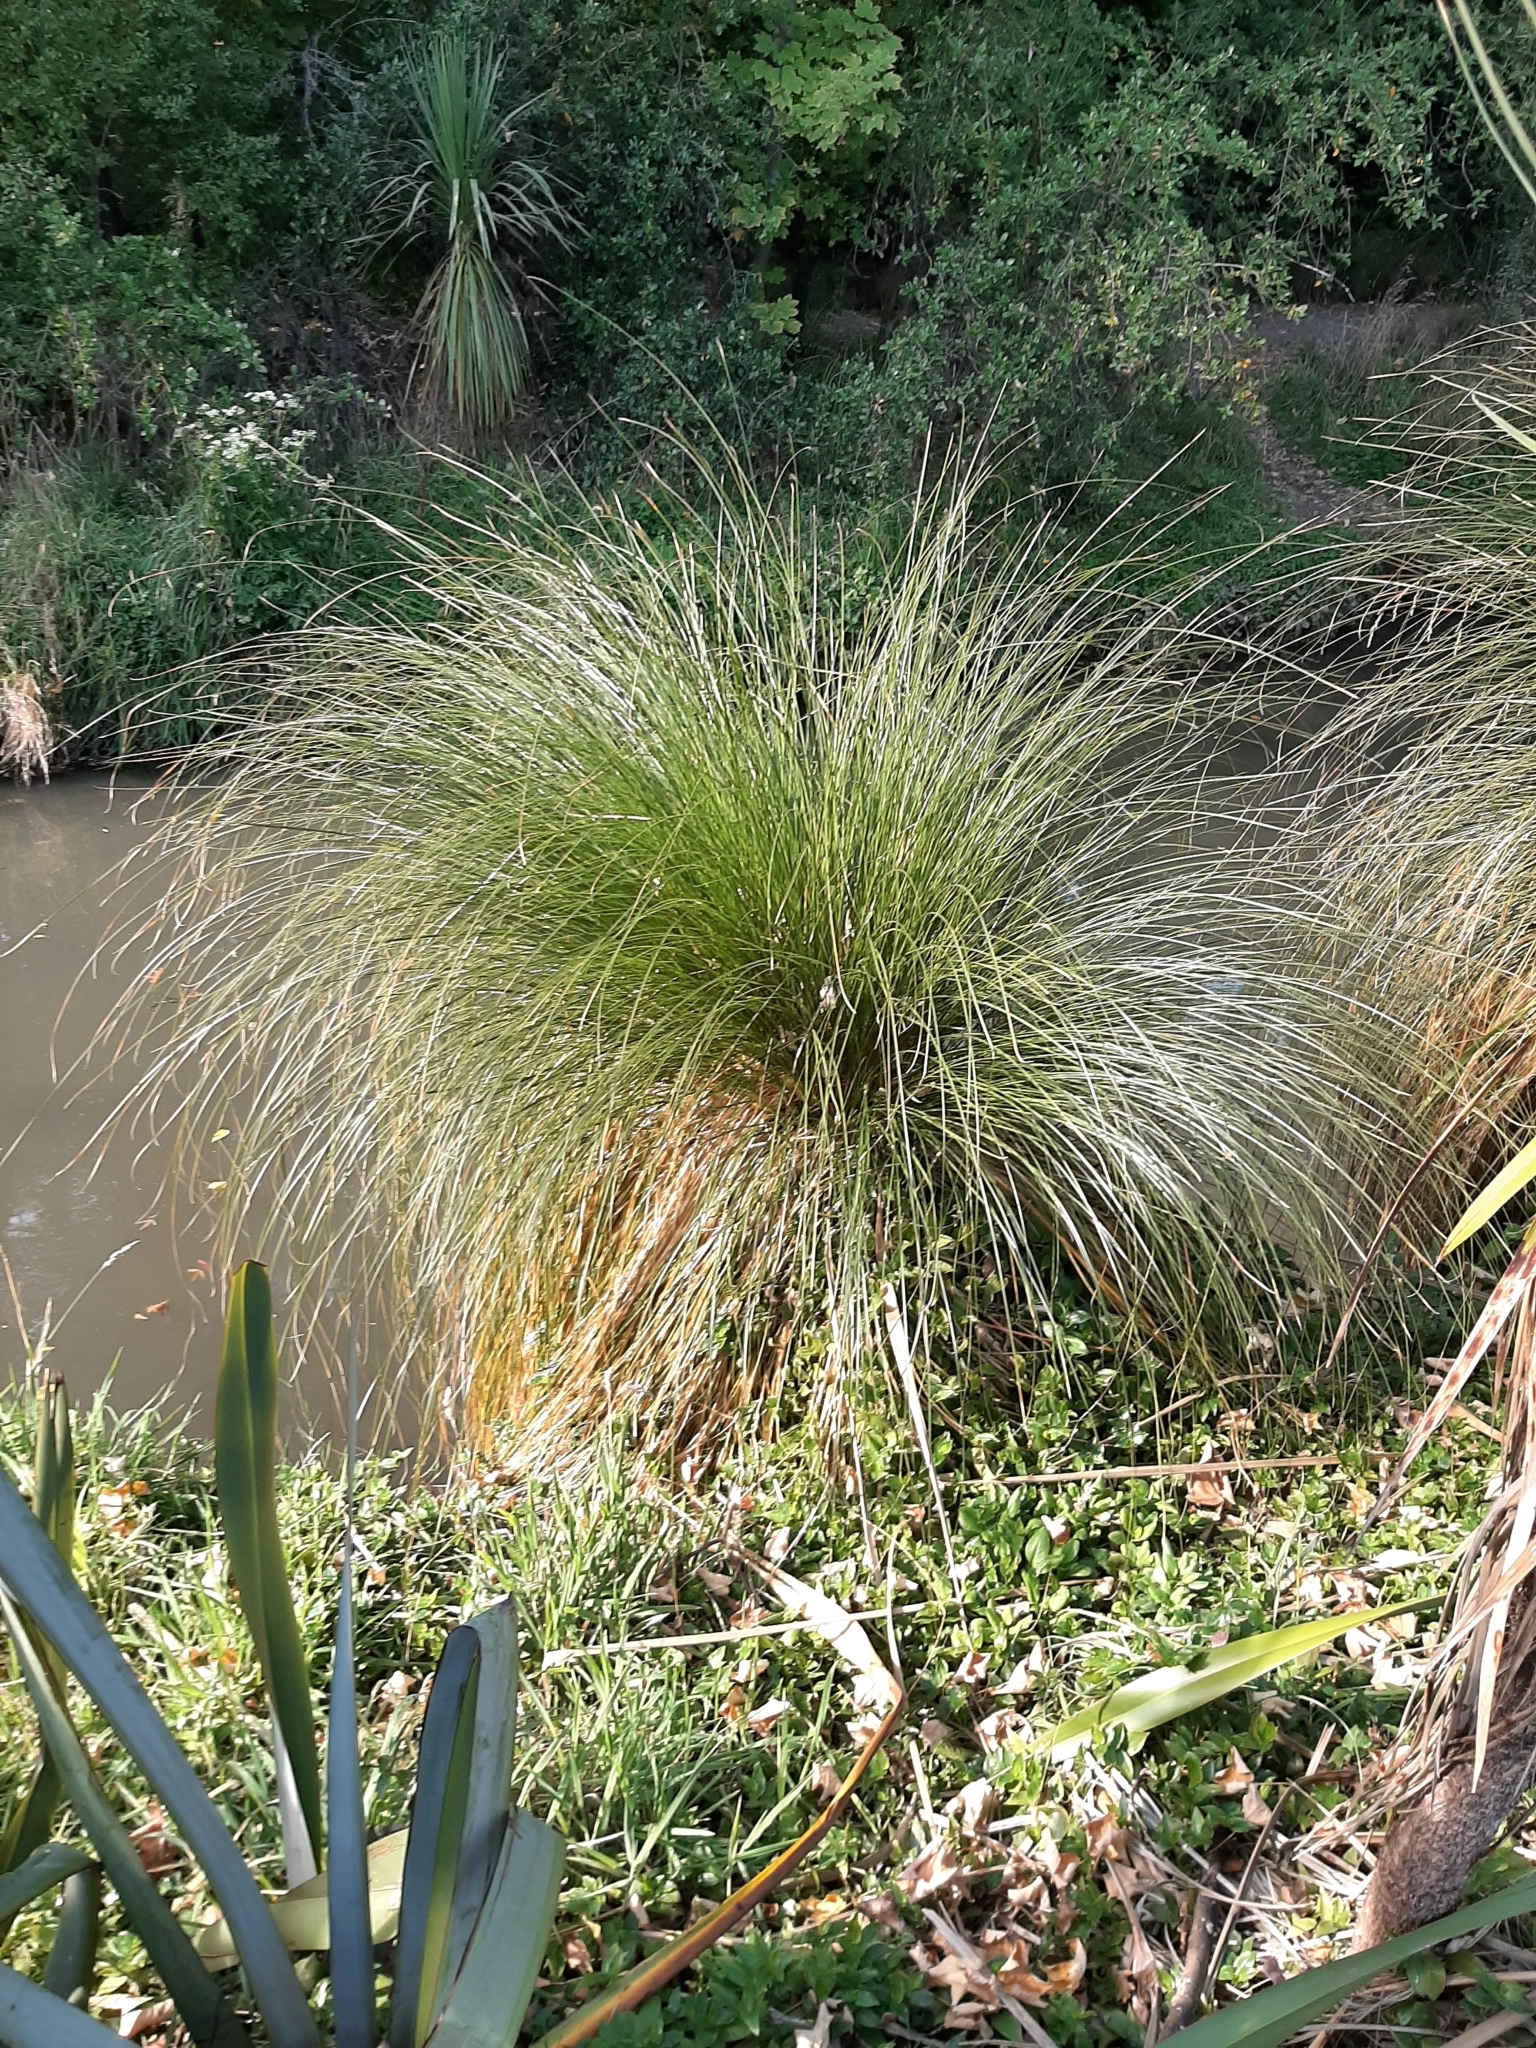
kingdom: Plantae
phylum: Tracheophyta
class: Liliopsida
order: Poales
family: Cyperaceae
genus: Carex
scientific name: Carex secta
